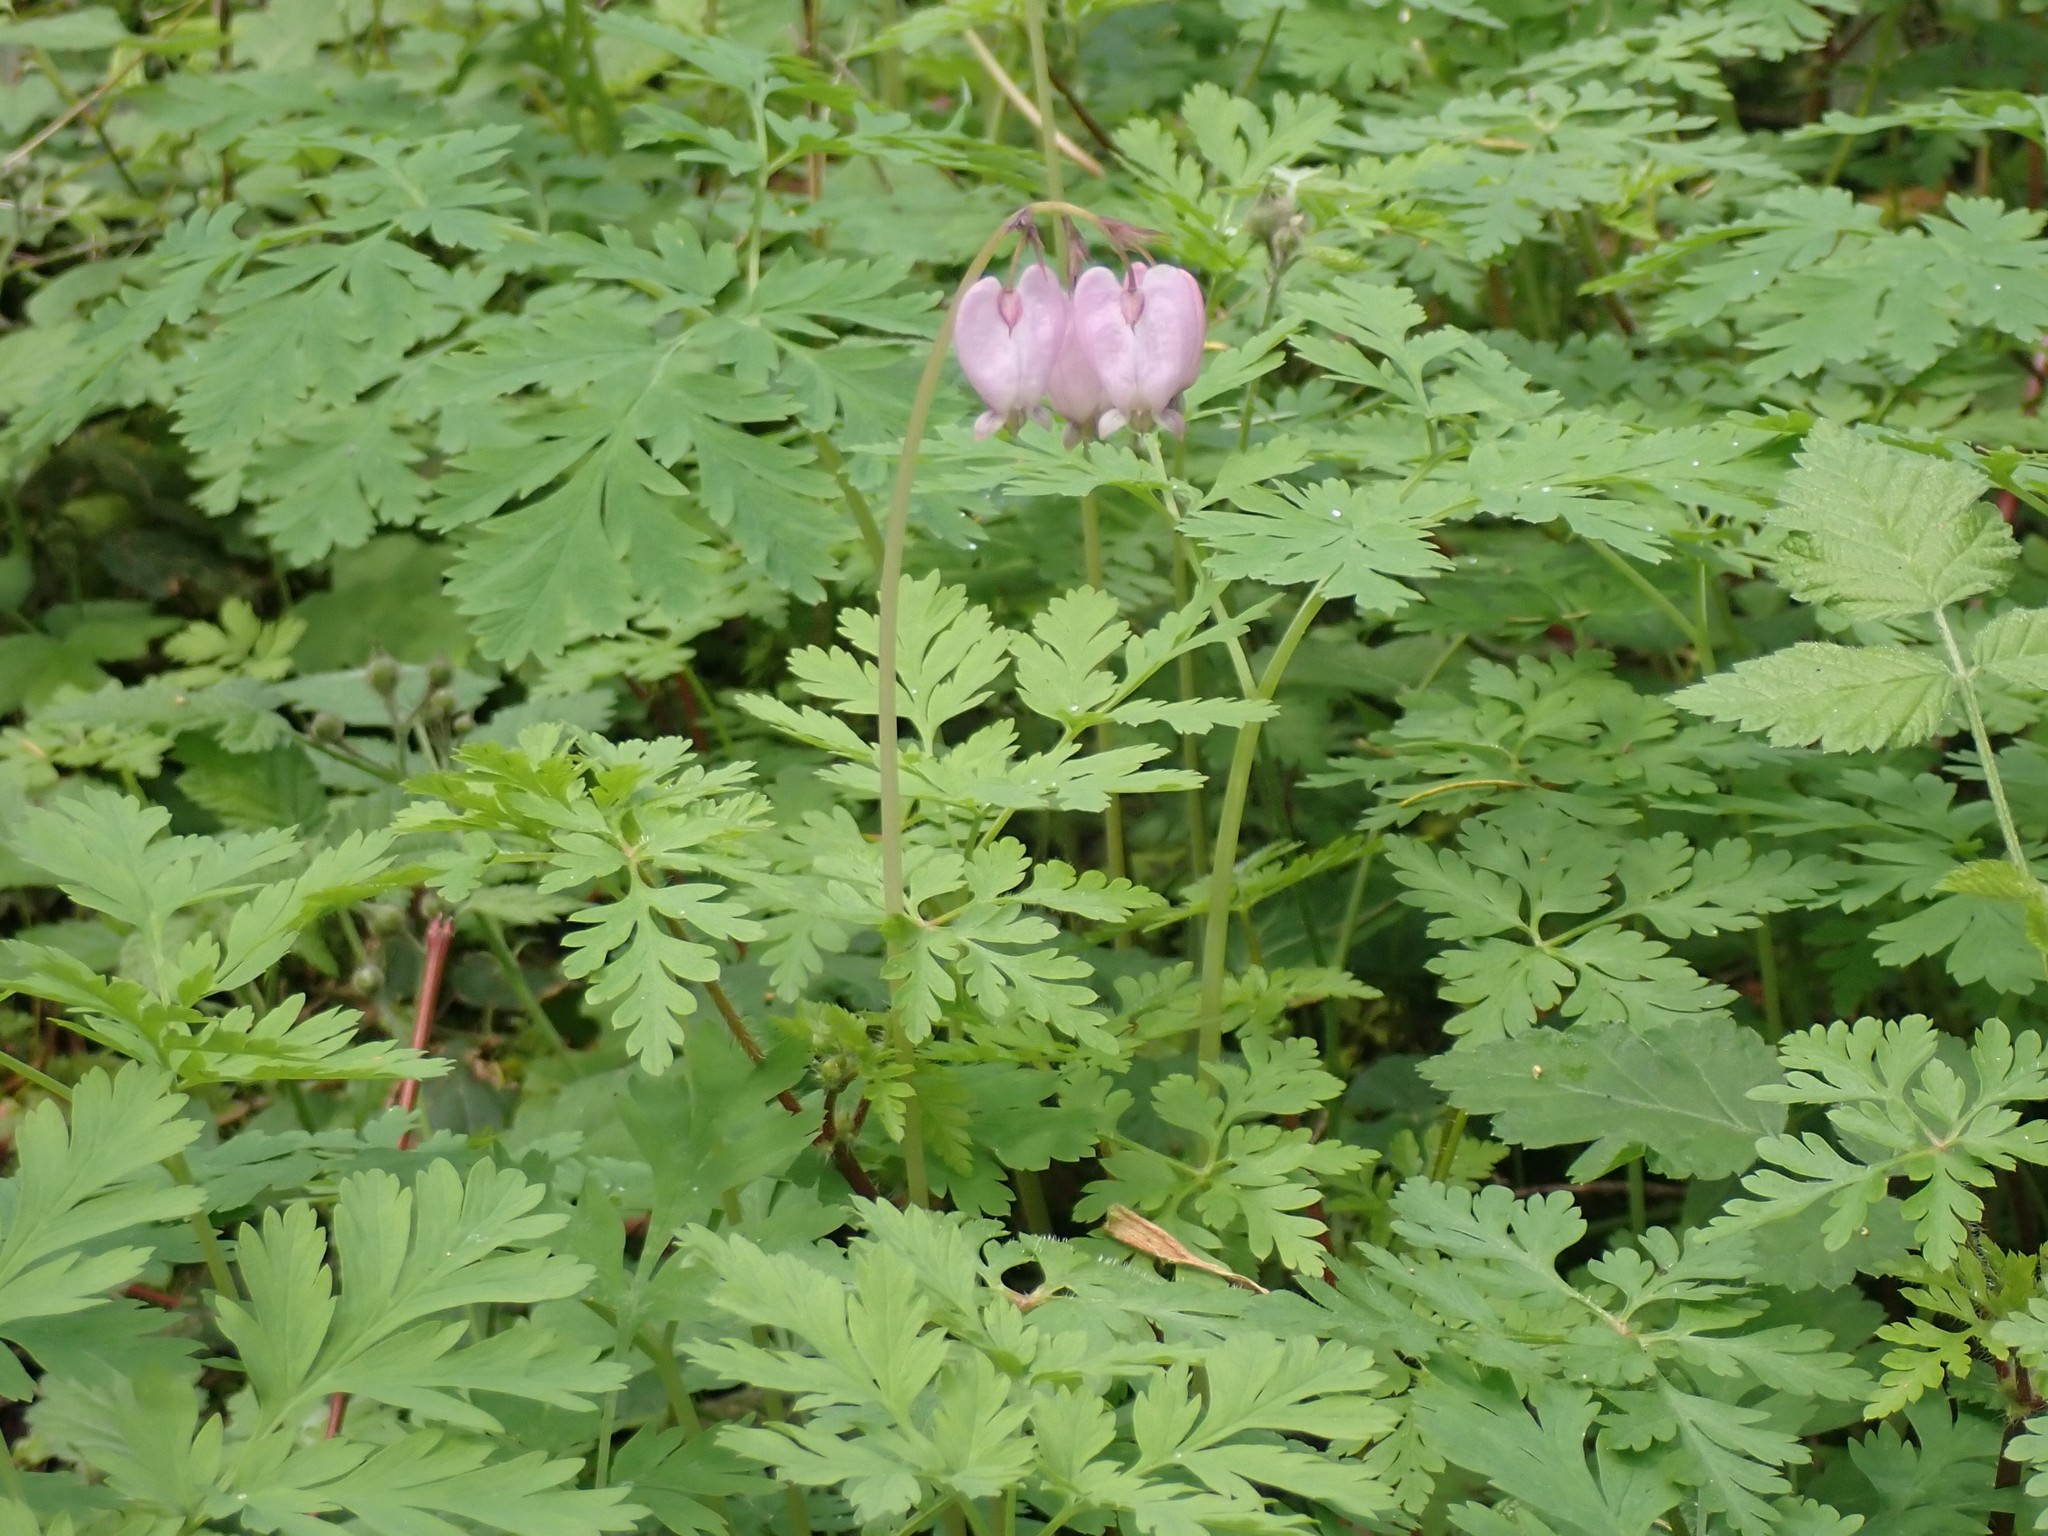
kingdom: Plantae
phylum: Tracheophyta
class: Magnoliopsida
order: Ranunculales
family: Papaveraceae
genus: Dicentra
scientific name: Dicentra formosa
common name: Bleeding-heart
